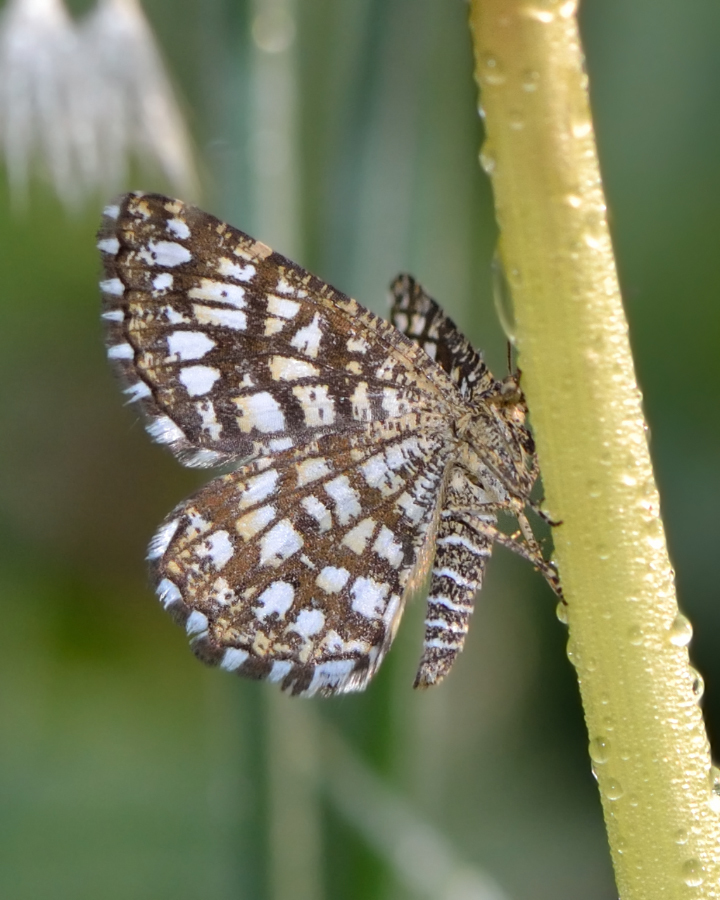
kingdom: Animalia
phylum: Arthropoda
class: Insecta
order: Lepidoptera
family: Geometridae
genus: Chiasmia
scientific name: Chiasmia clathrata
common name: Latticed heath
